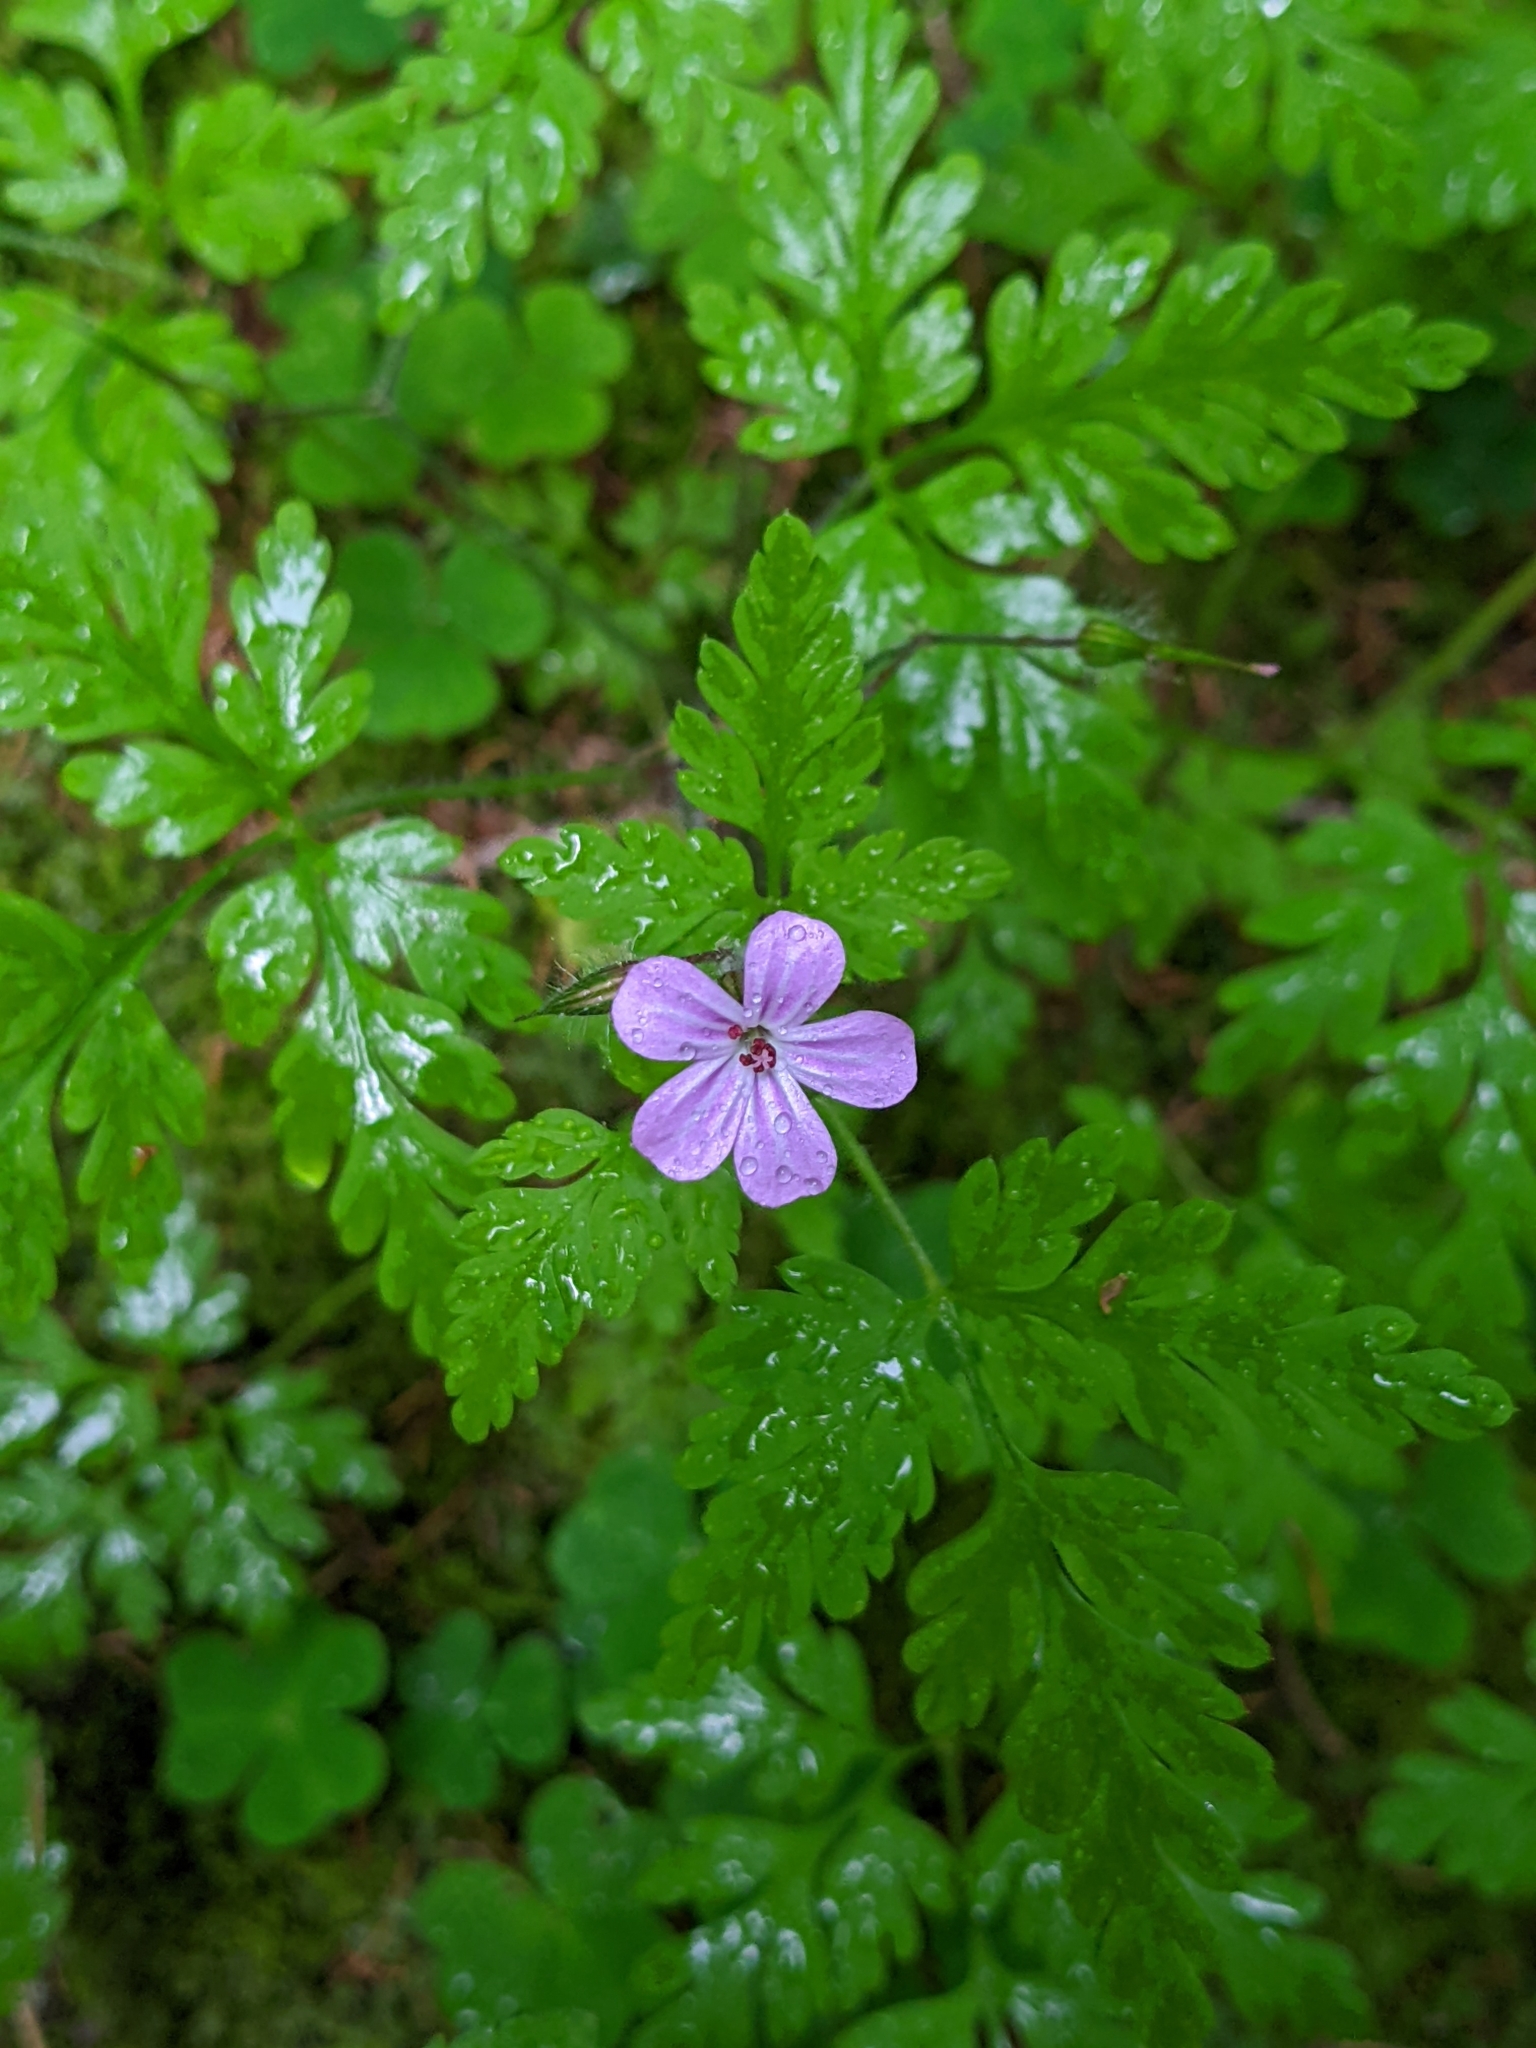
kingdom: Plantae
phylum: Tracheophyta
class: Magnoliopsida
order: Geraniales
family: Geraniaceae
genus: Geranium
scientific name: Geranium robertianum
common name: Herb-robert
